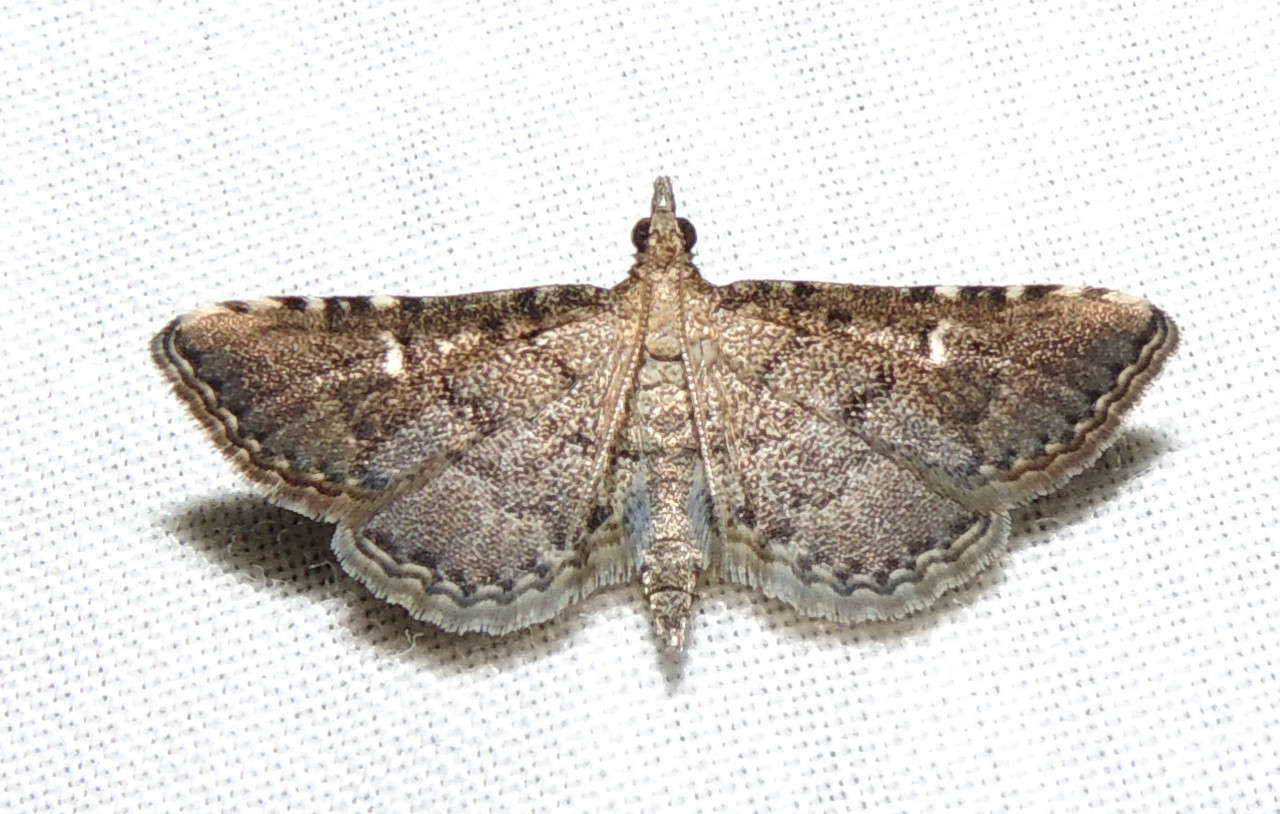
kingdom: Animalia
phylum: Arthropoda
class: Insecta
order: Lepidoptera
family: Crambidae
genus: Metasia
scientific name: Metasia capnochroa
